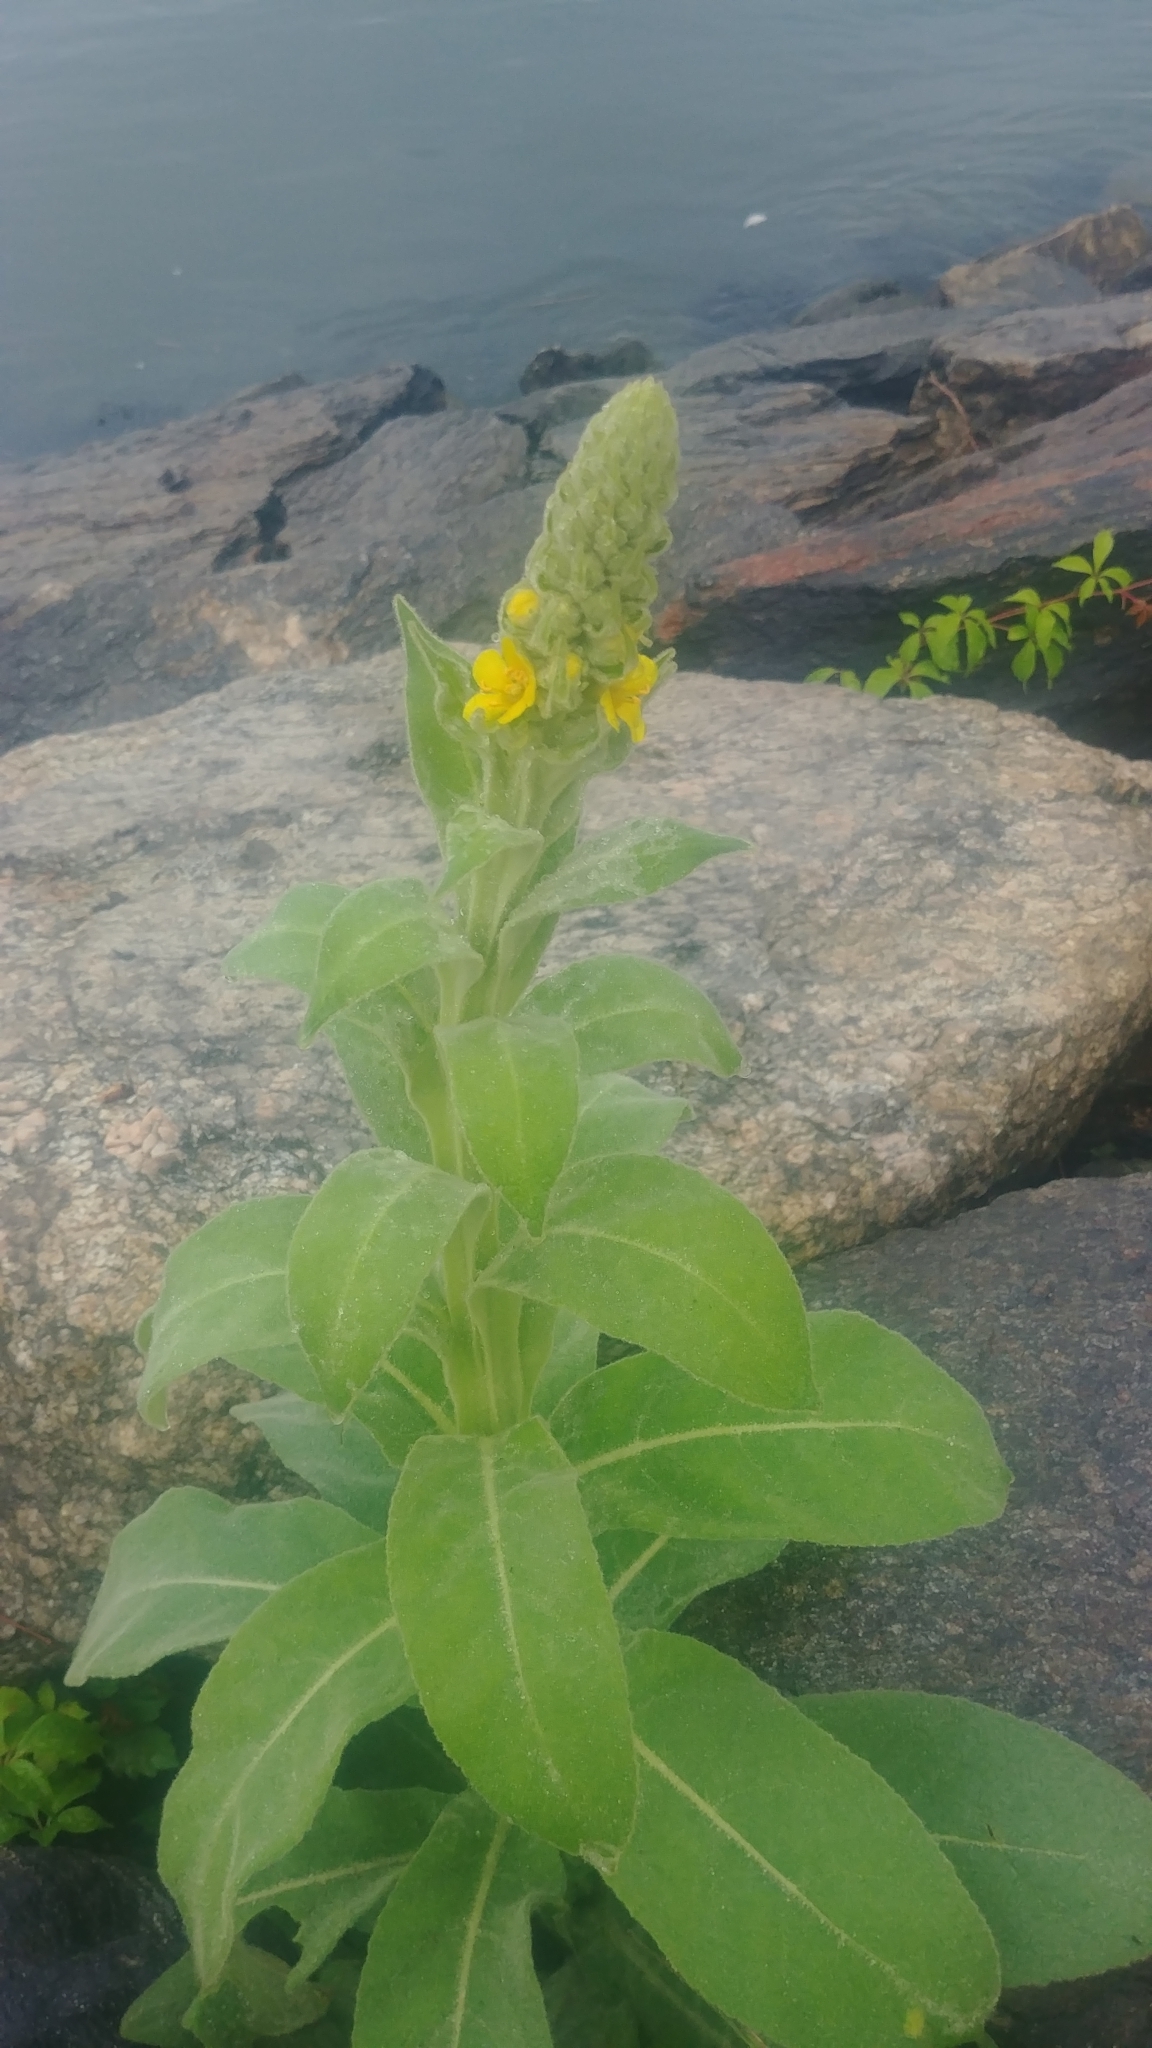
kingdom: Plantae
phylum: Tracheophyta
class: Magnoliopsida
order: Lamiales
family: Scrophulariaceae
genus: Verbascum
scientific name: Verbascum thapsus
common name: Common mullein
